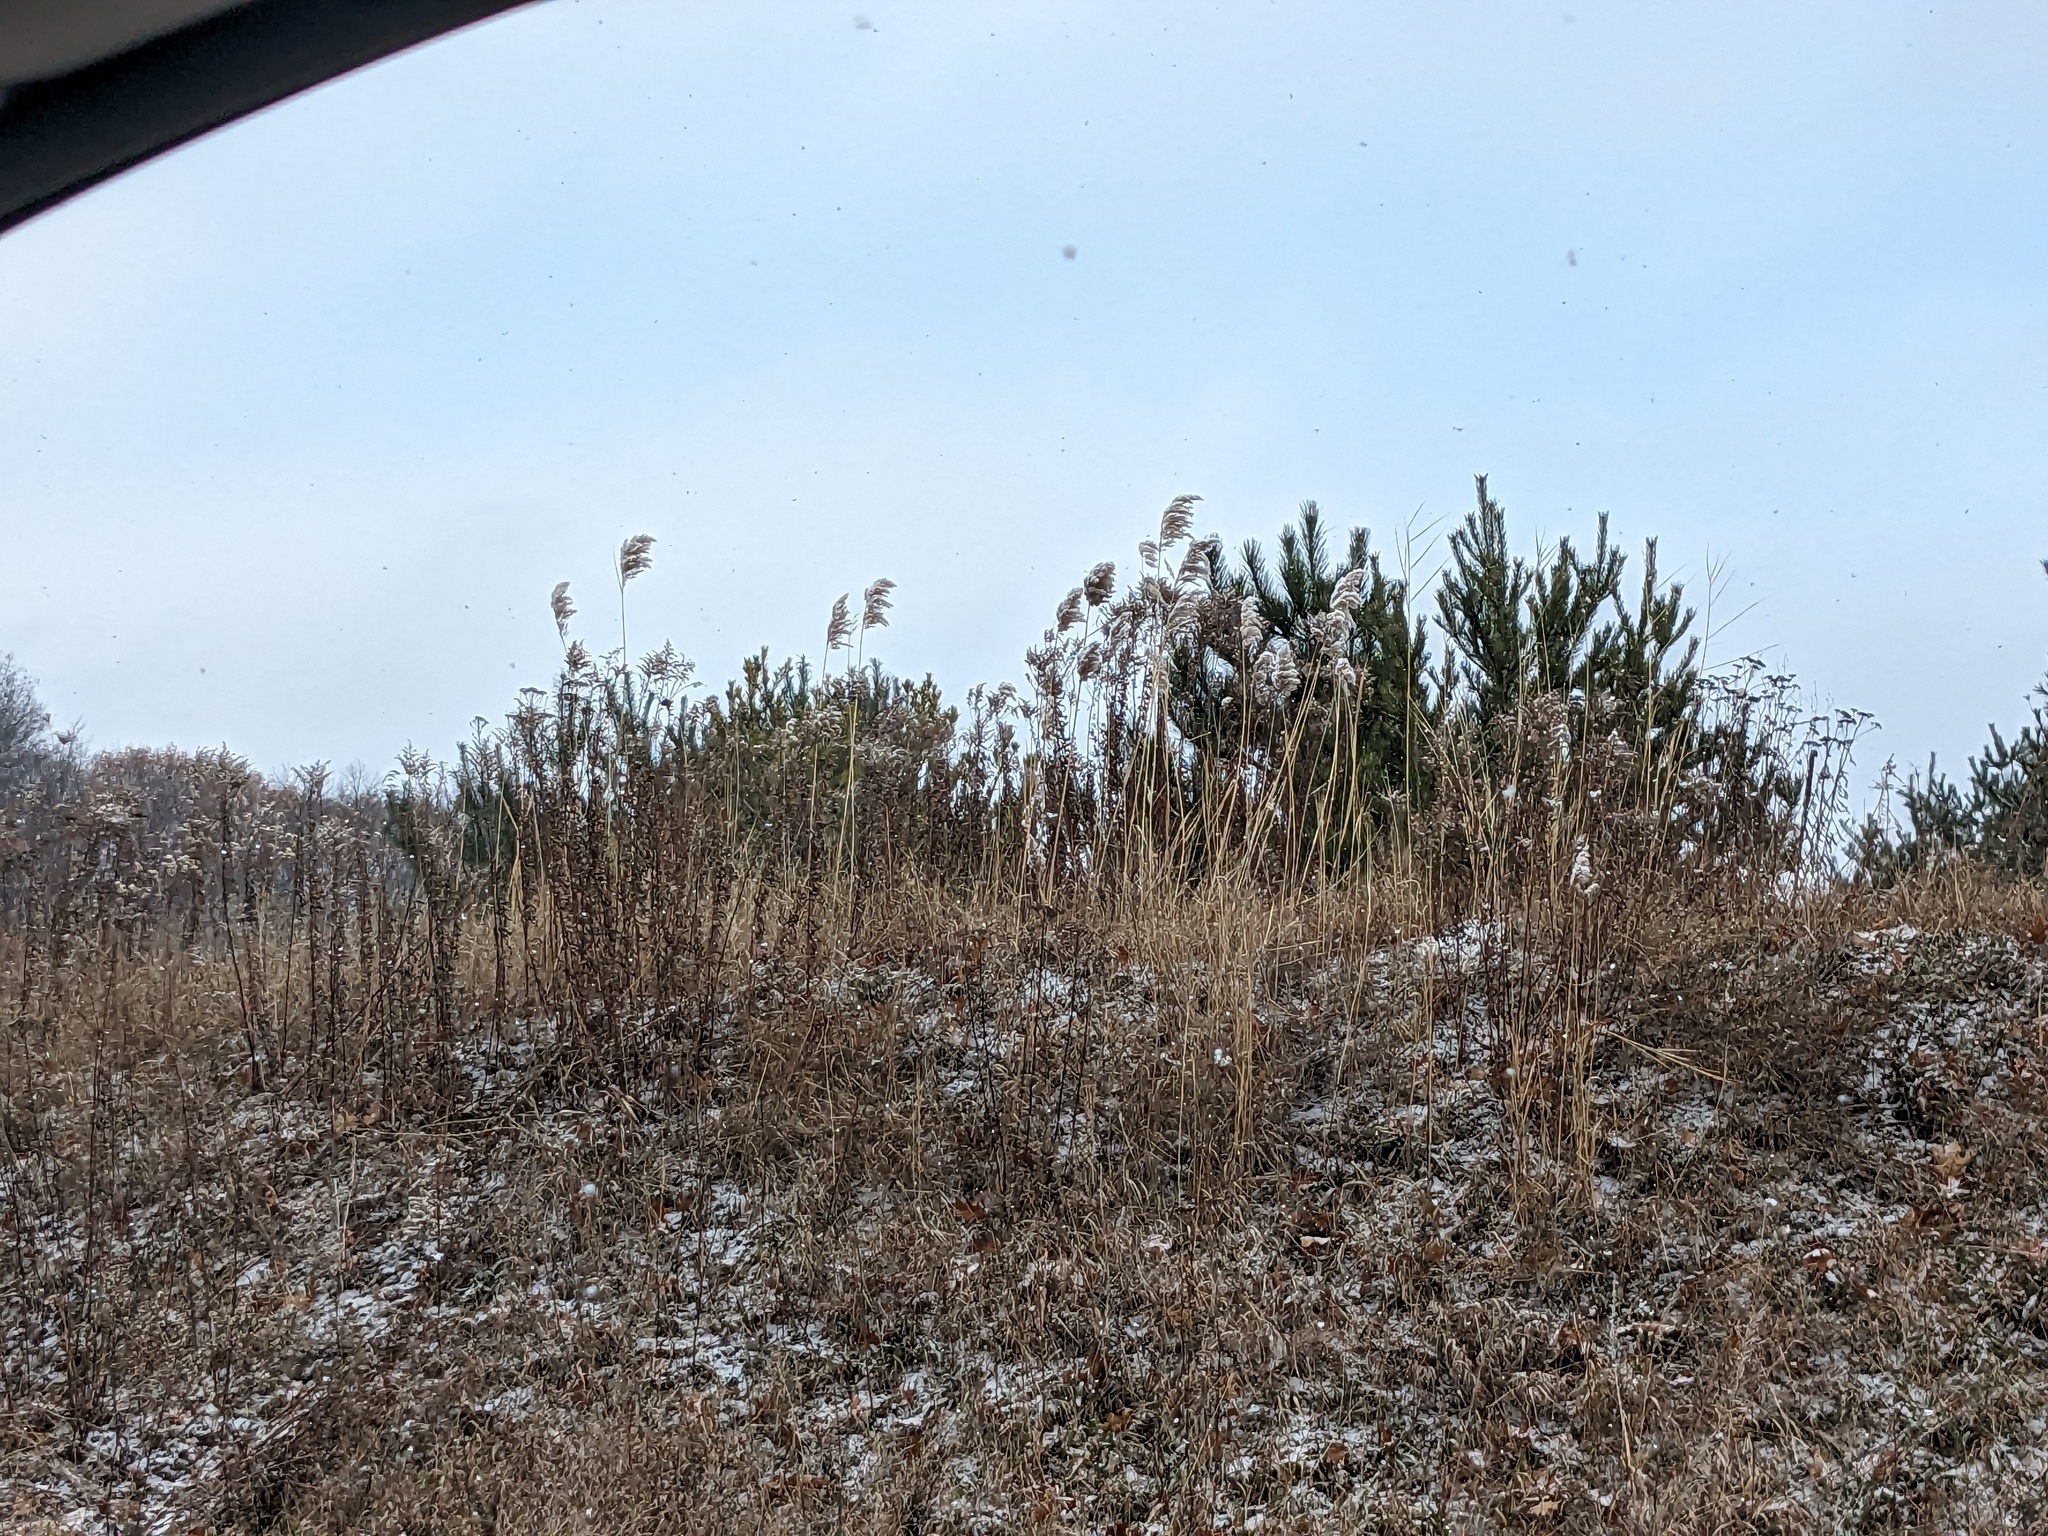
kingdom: Plantae
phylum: Tracheophyta
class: Liliopsida
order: Poales
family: Poaceae
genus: Phragmites
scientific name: Phragmites australis
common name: Common reed
